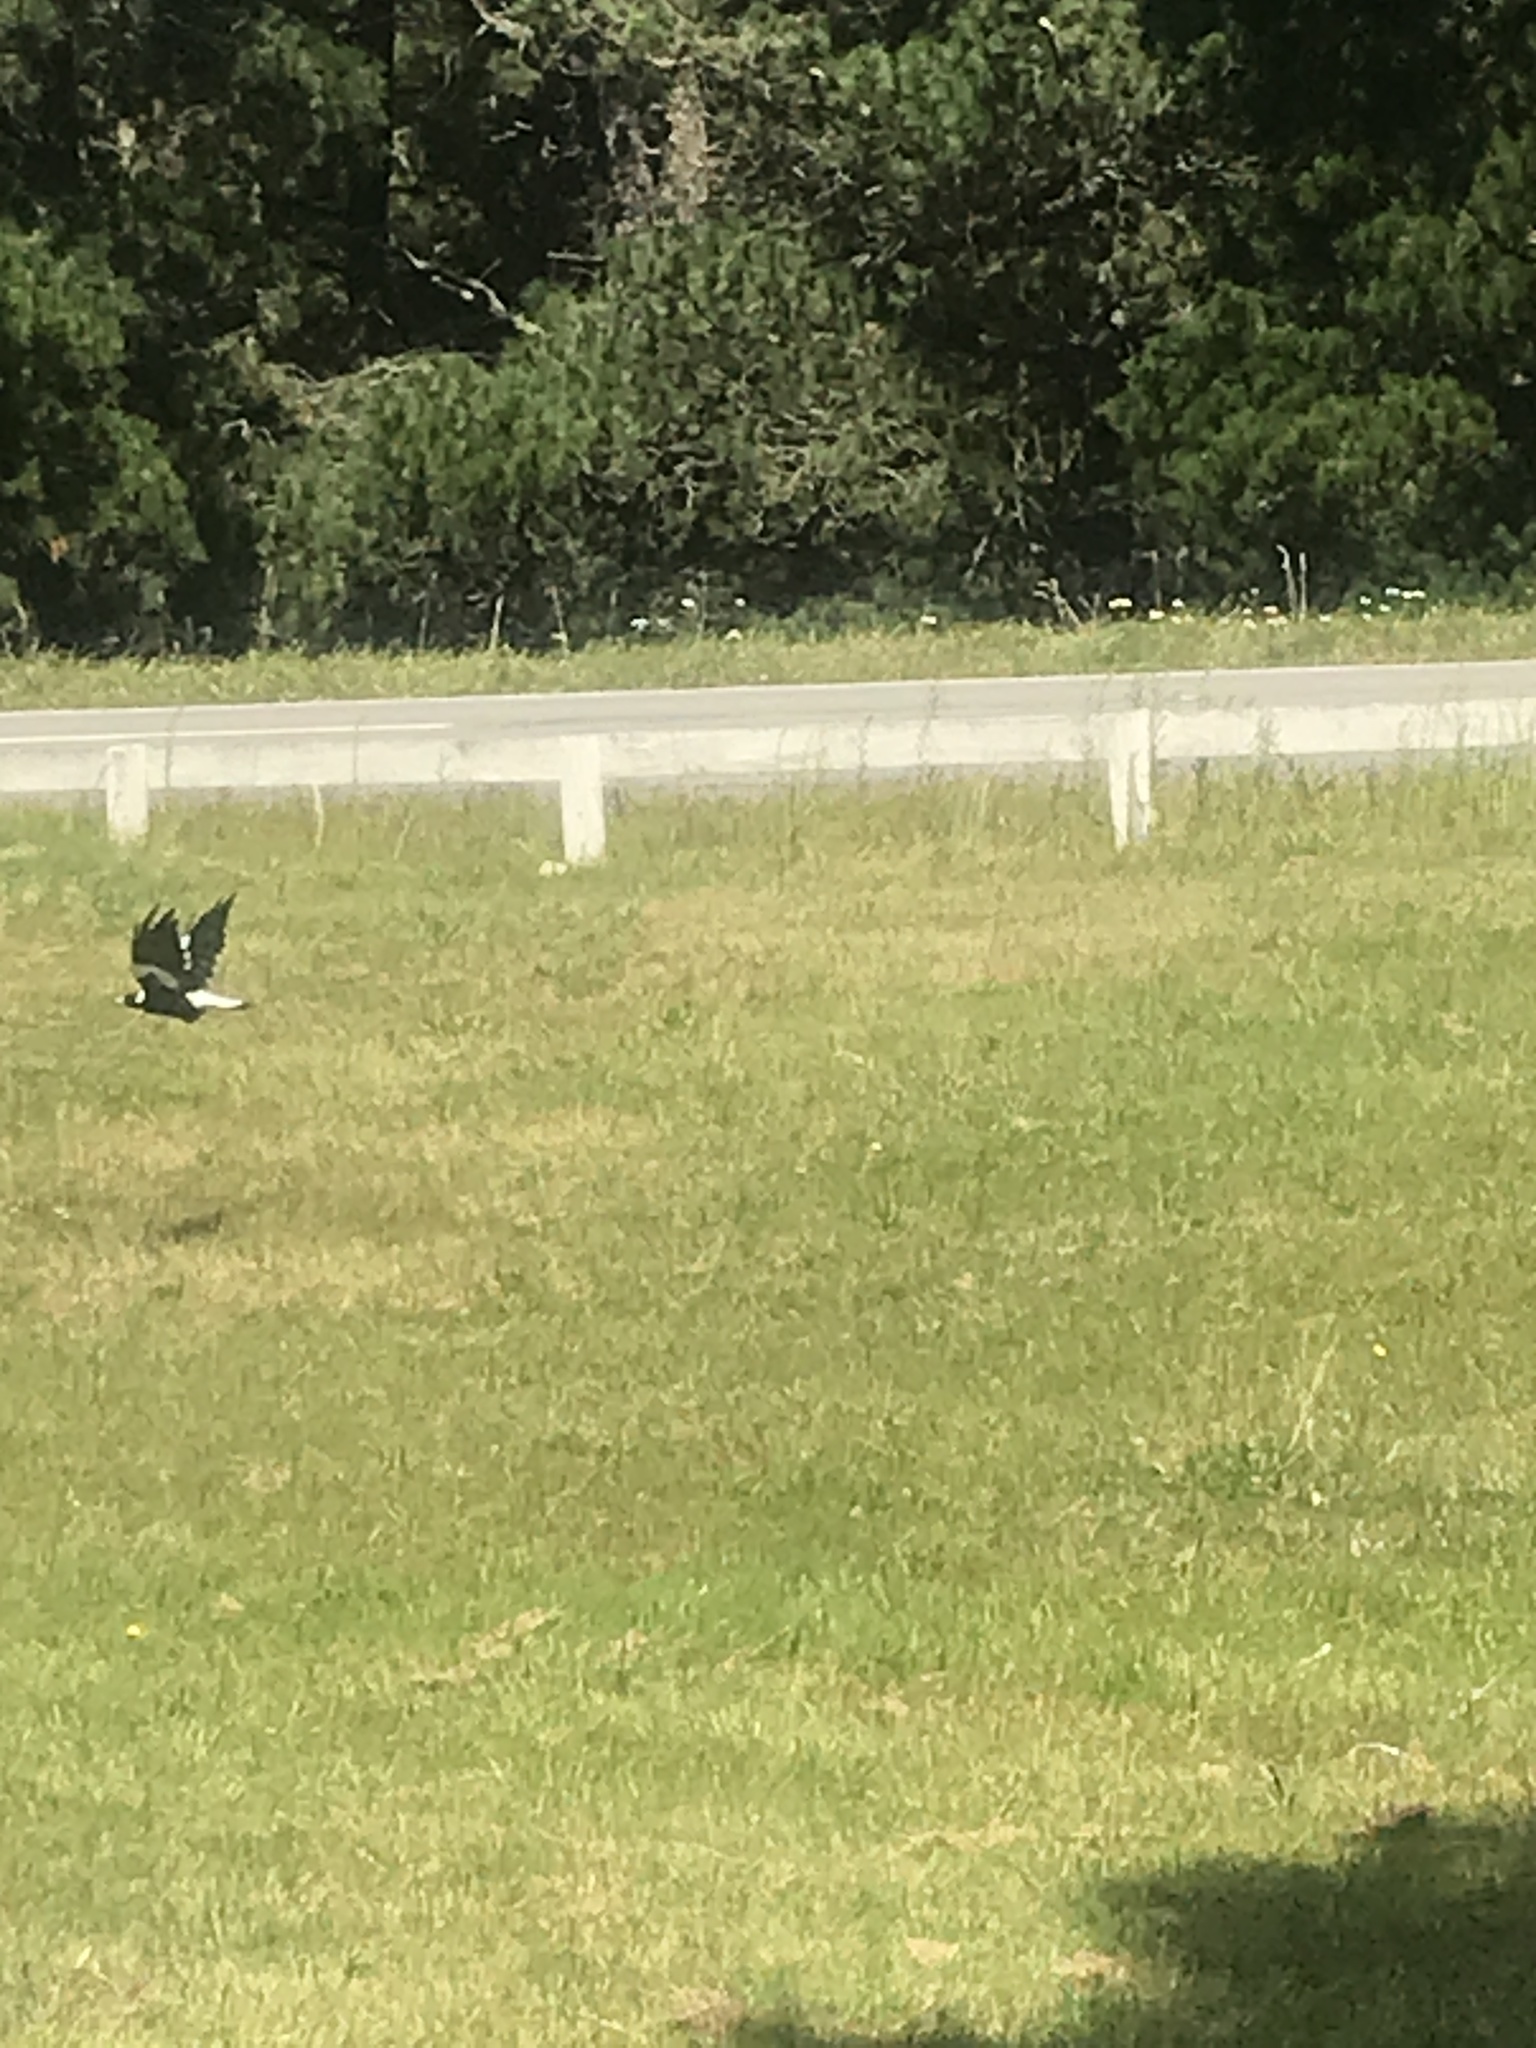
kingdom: Animalia
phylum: Chordata
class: Aves
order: Passeriformes
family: Cracticidae
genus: Gymnorhina
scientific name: Gymnorhina tibicen
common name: Australian magpie
